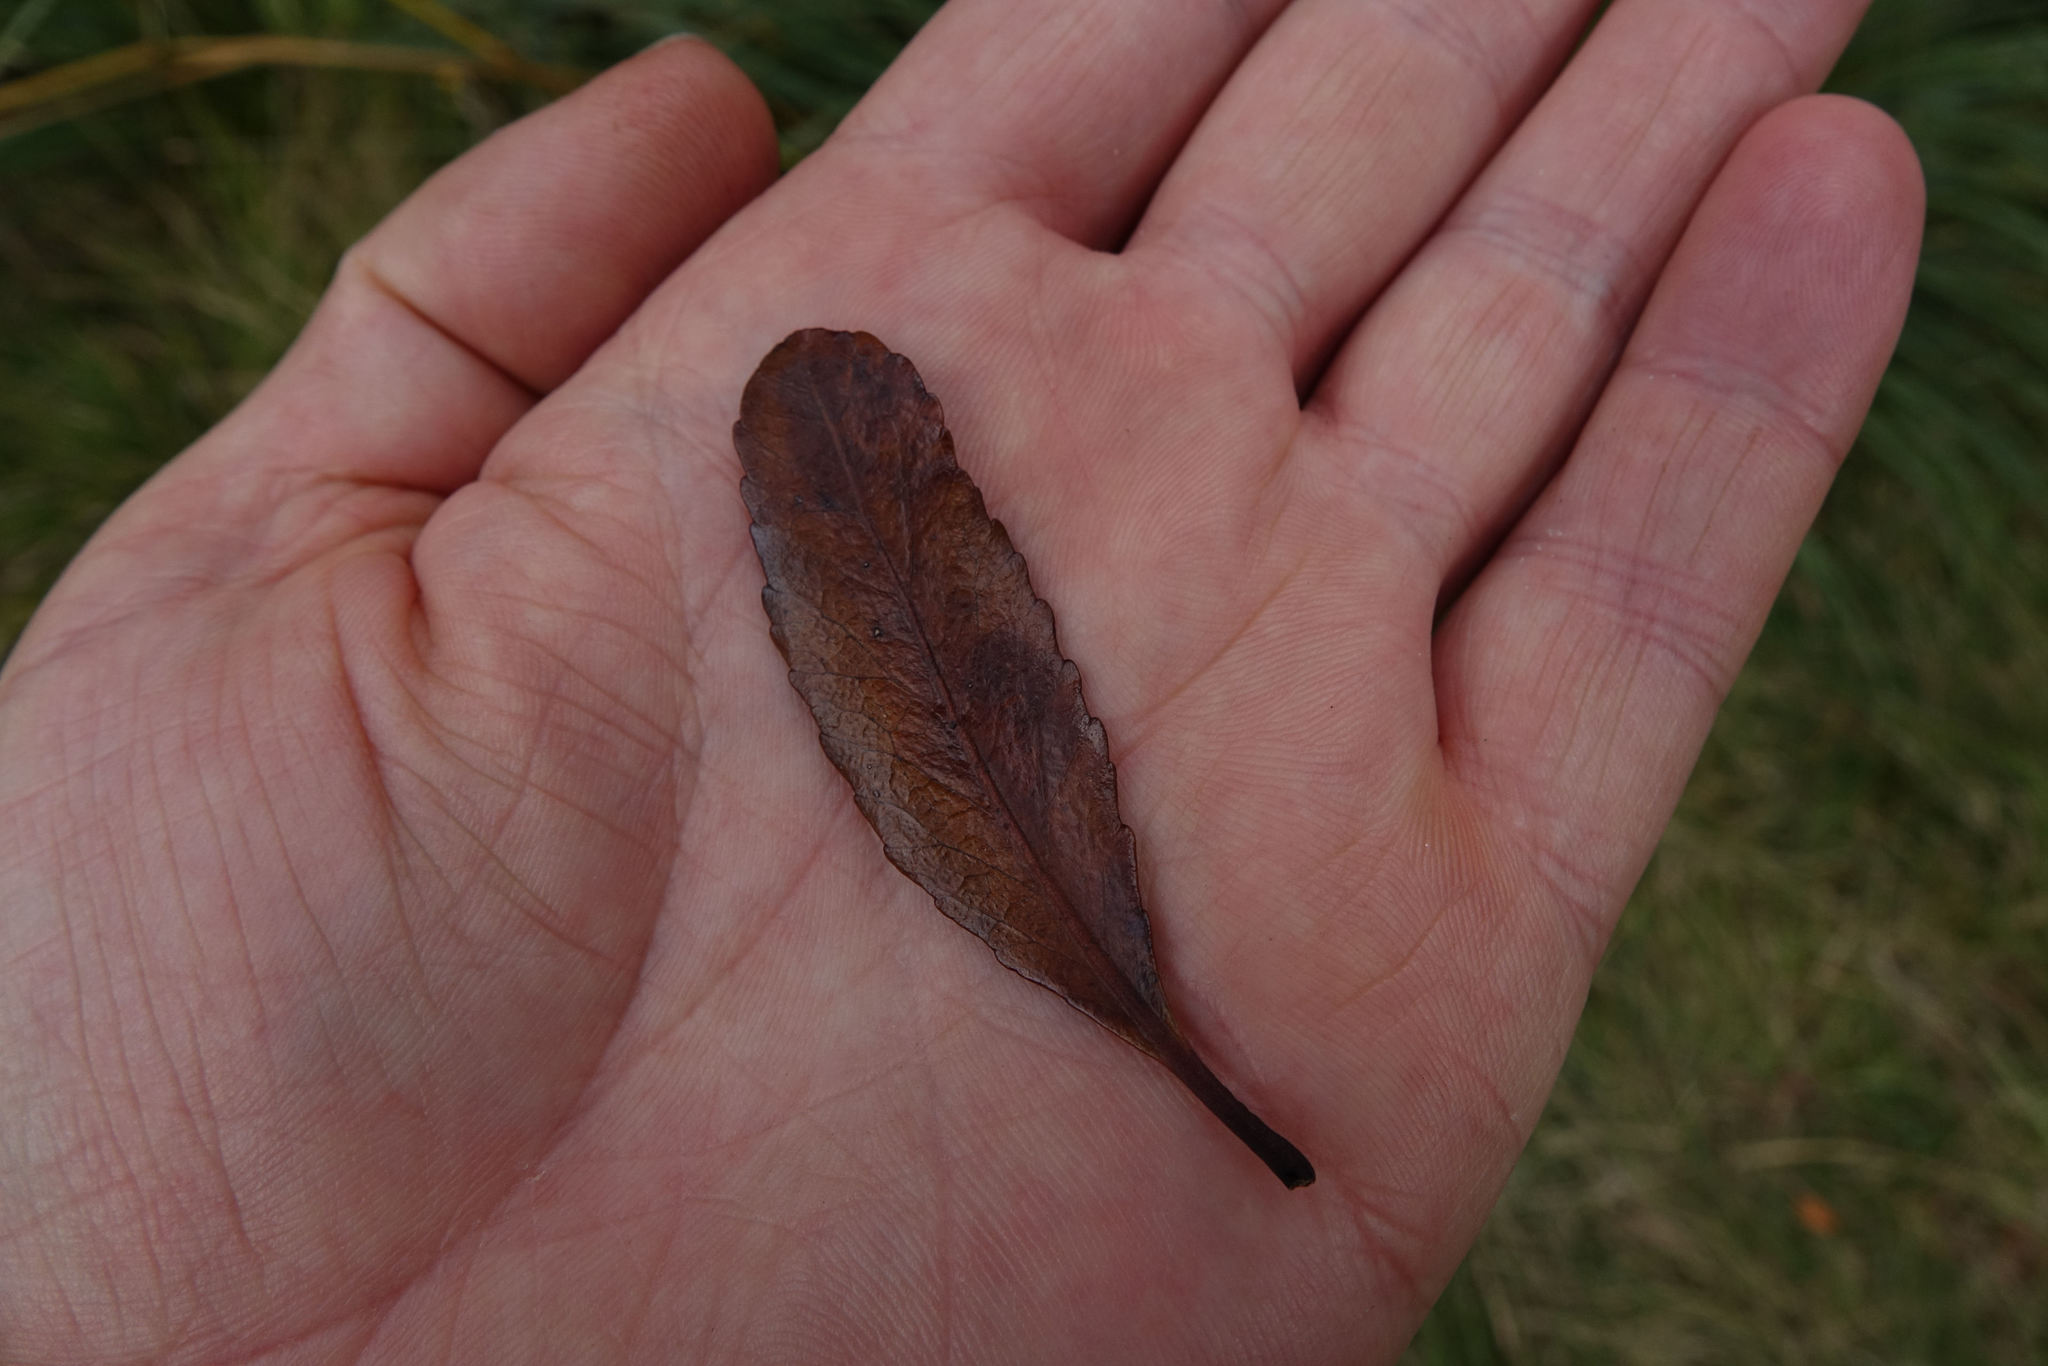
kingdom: Plantae
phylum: Tracheophyta
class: Magnoliopsida
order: Oxalidales
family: Elaeocarpaceae
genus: Elaeocarpus
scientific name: Elaeocarpus hookerianus
